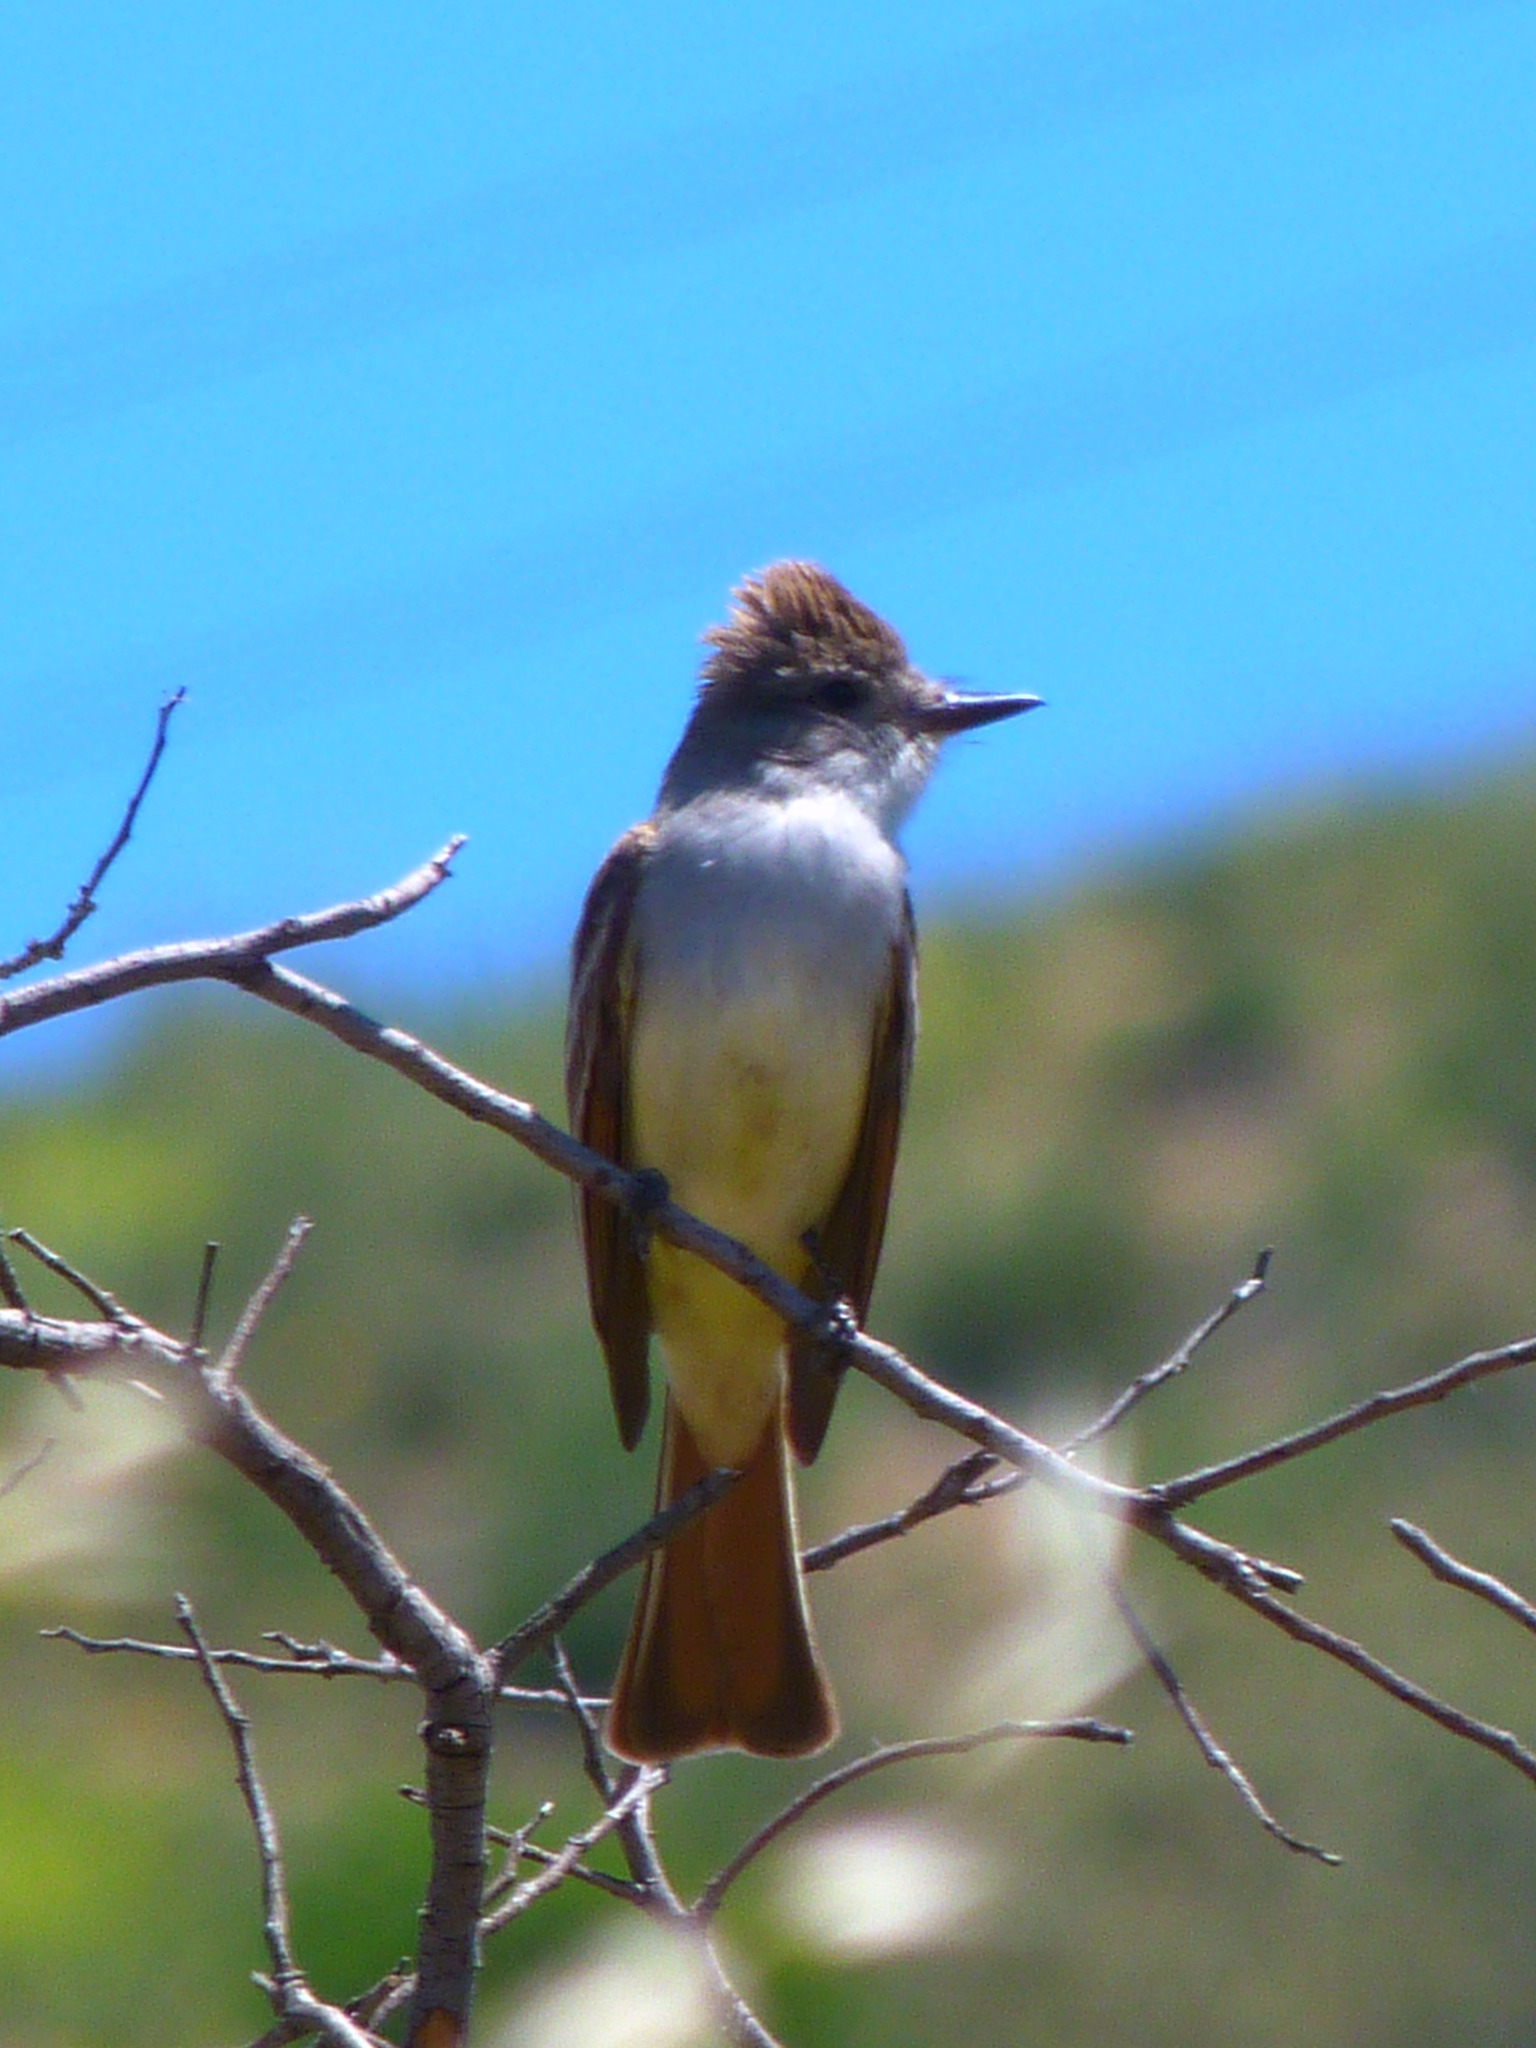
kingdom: Animalia
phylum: Chordata
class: Aves
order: Passeriformes
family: Tyrannidae
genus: Myiarchus
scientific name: Myiarchus cinerascens
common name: Ash-throated flycatcher
